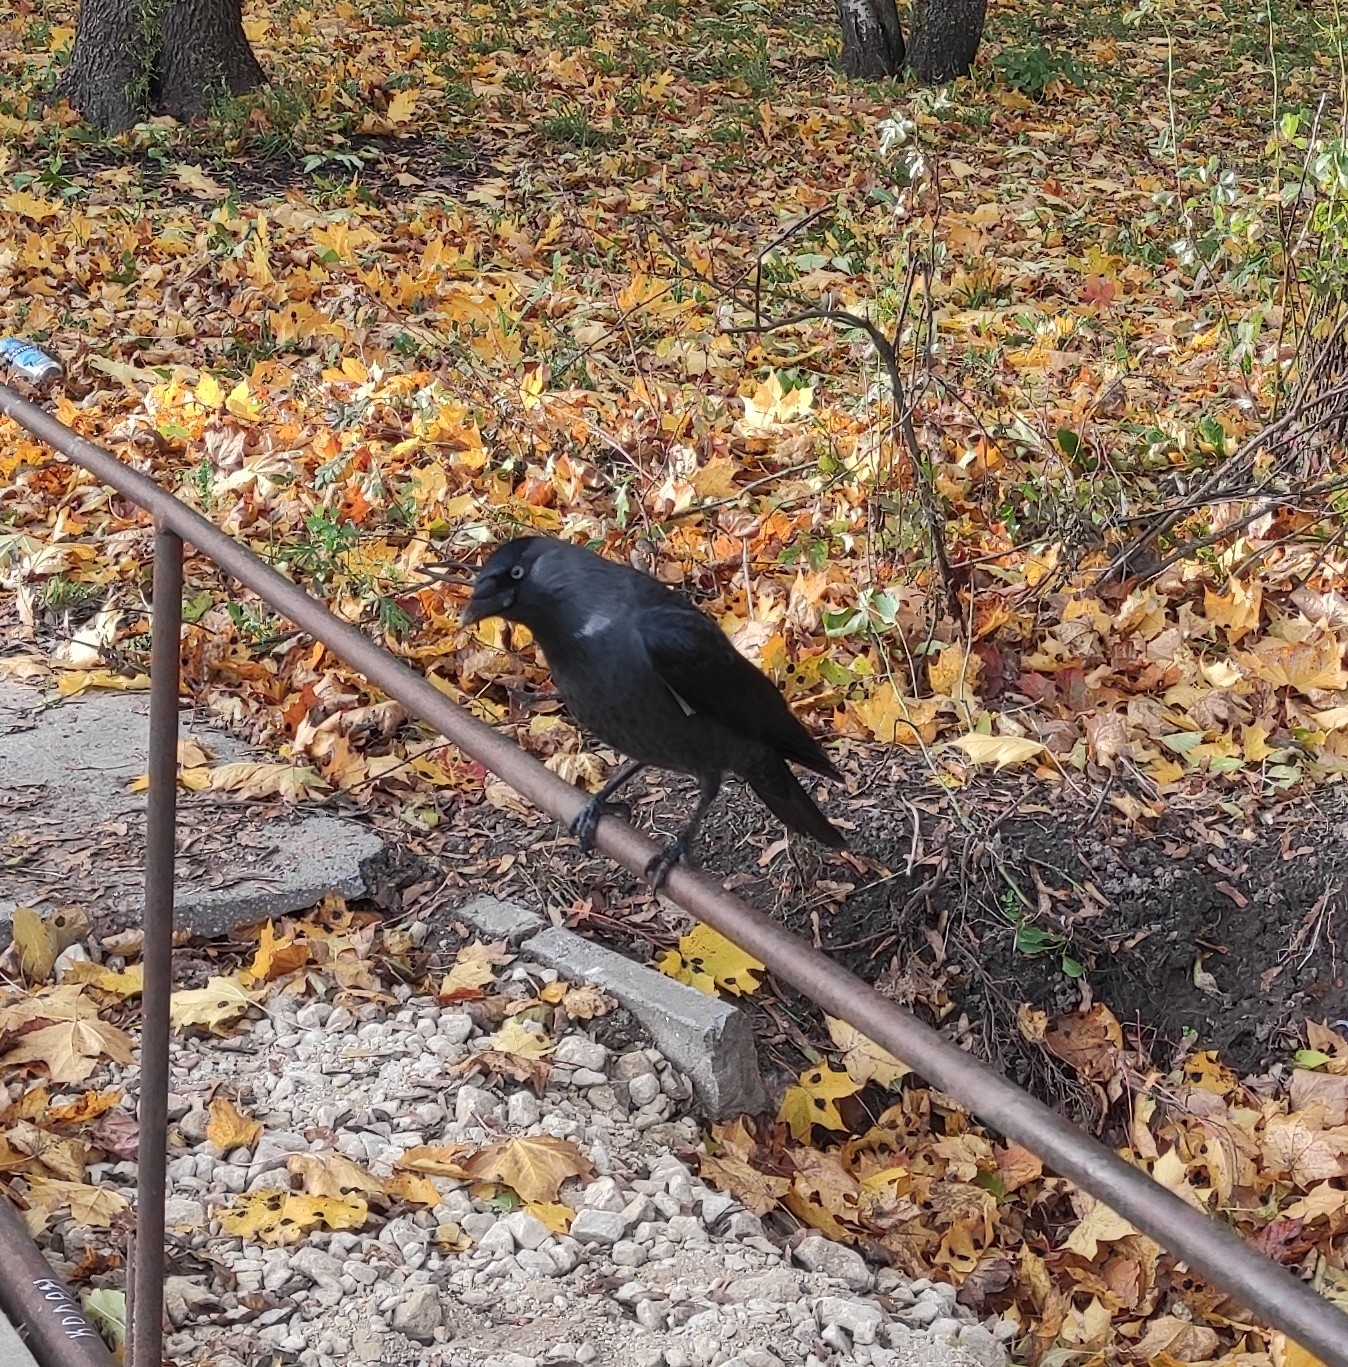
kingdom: Animalia
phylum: Chordata
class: Aves
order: Passeriformes
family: Corvidae
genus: Coloeus
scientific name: Coloeus monedula
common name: Western jackdaw
